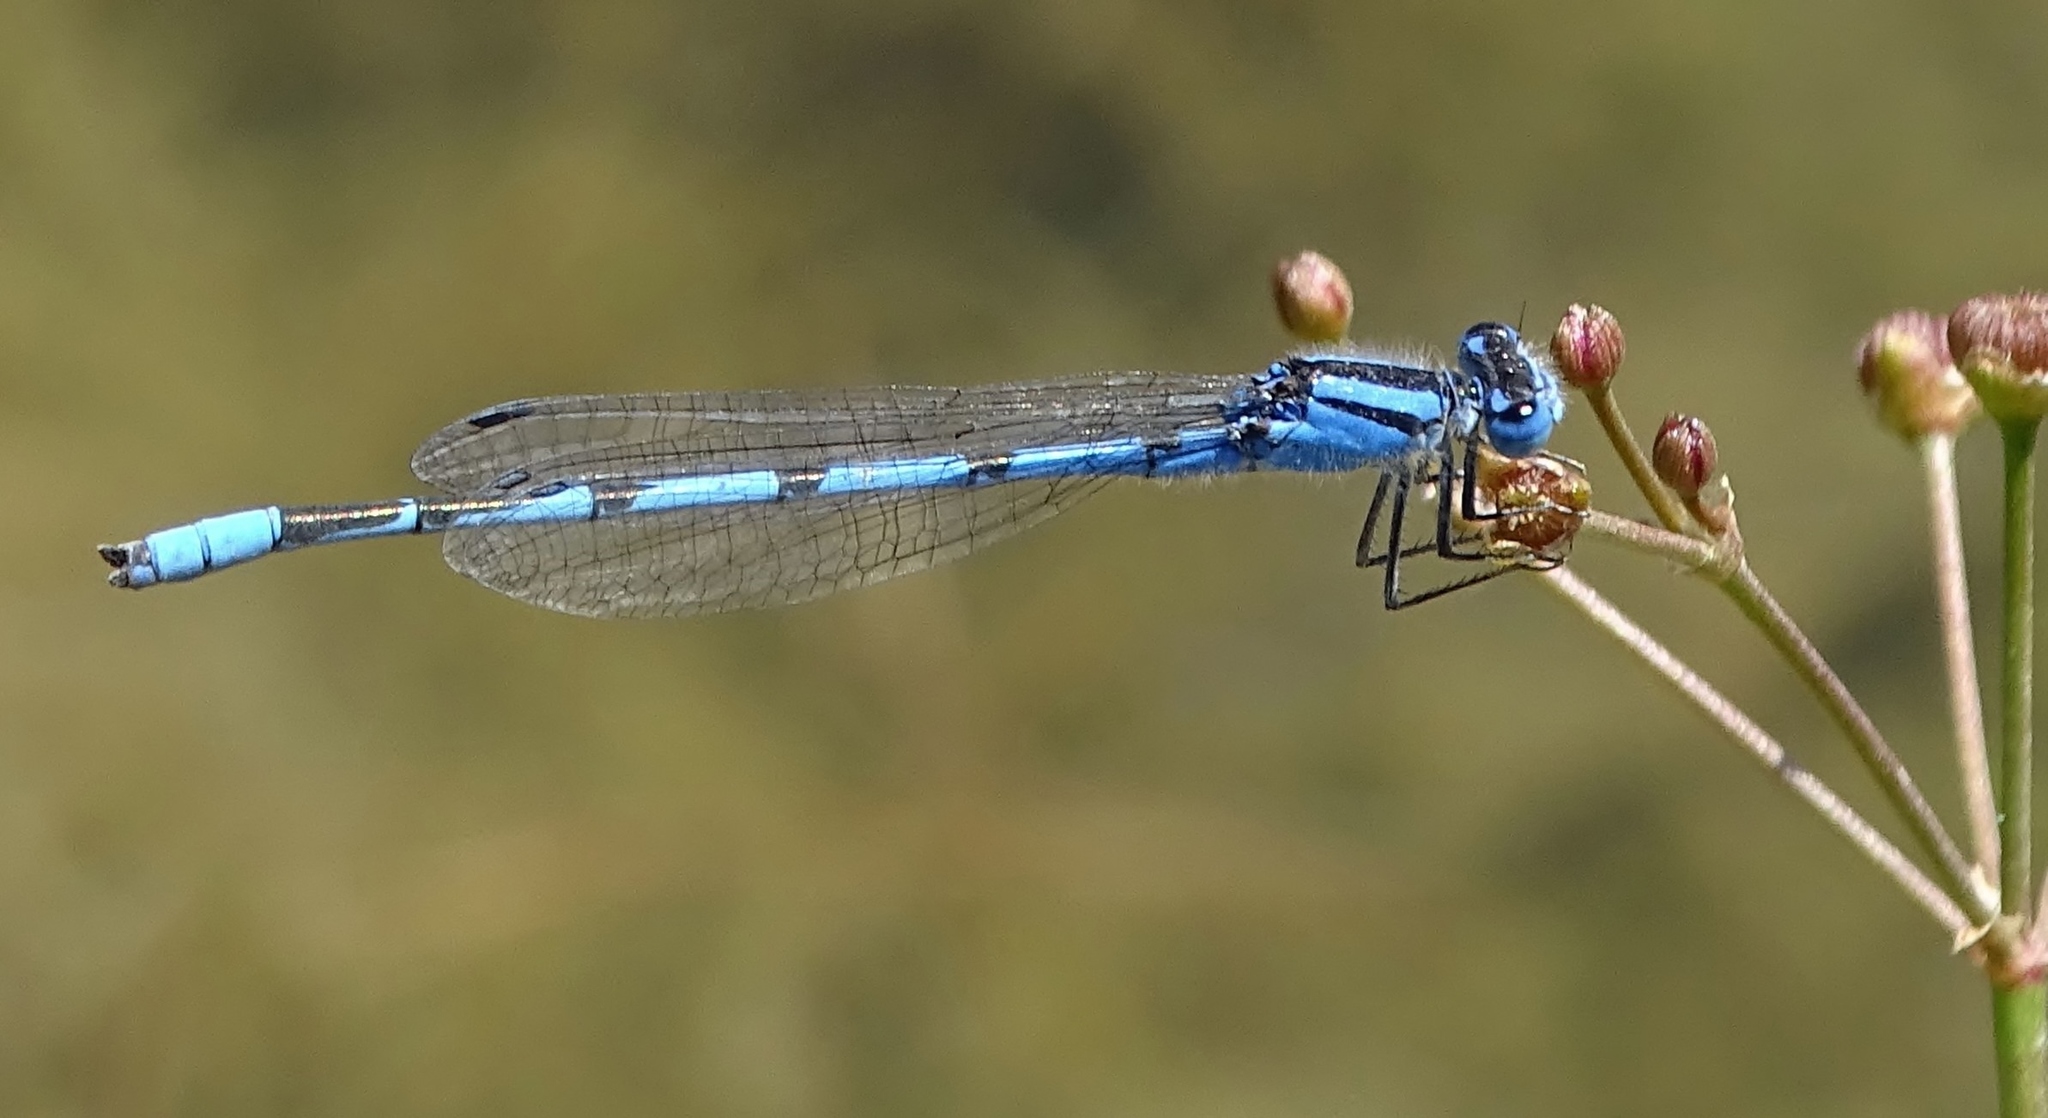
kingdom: Animalia
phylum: Arthropoda
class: Insecta
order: Odonata
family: Coenagrionidae
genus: Enallagma
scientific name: Enallagma civile
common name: Damselfly
